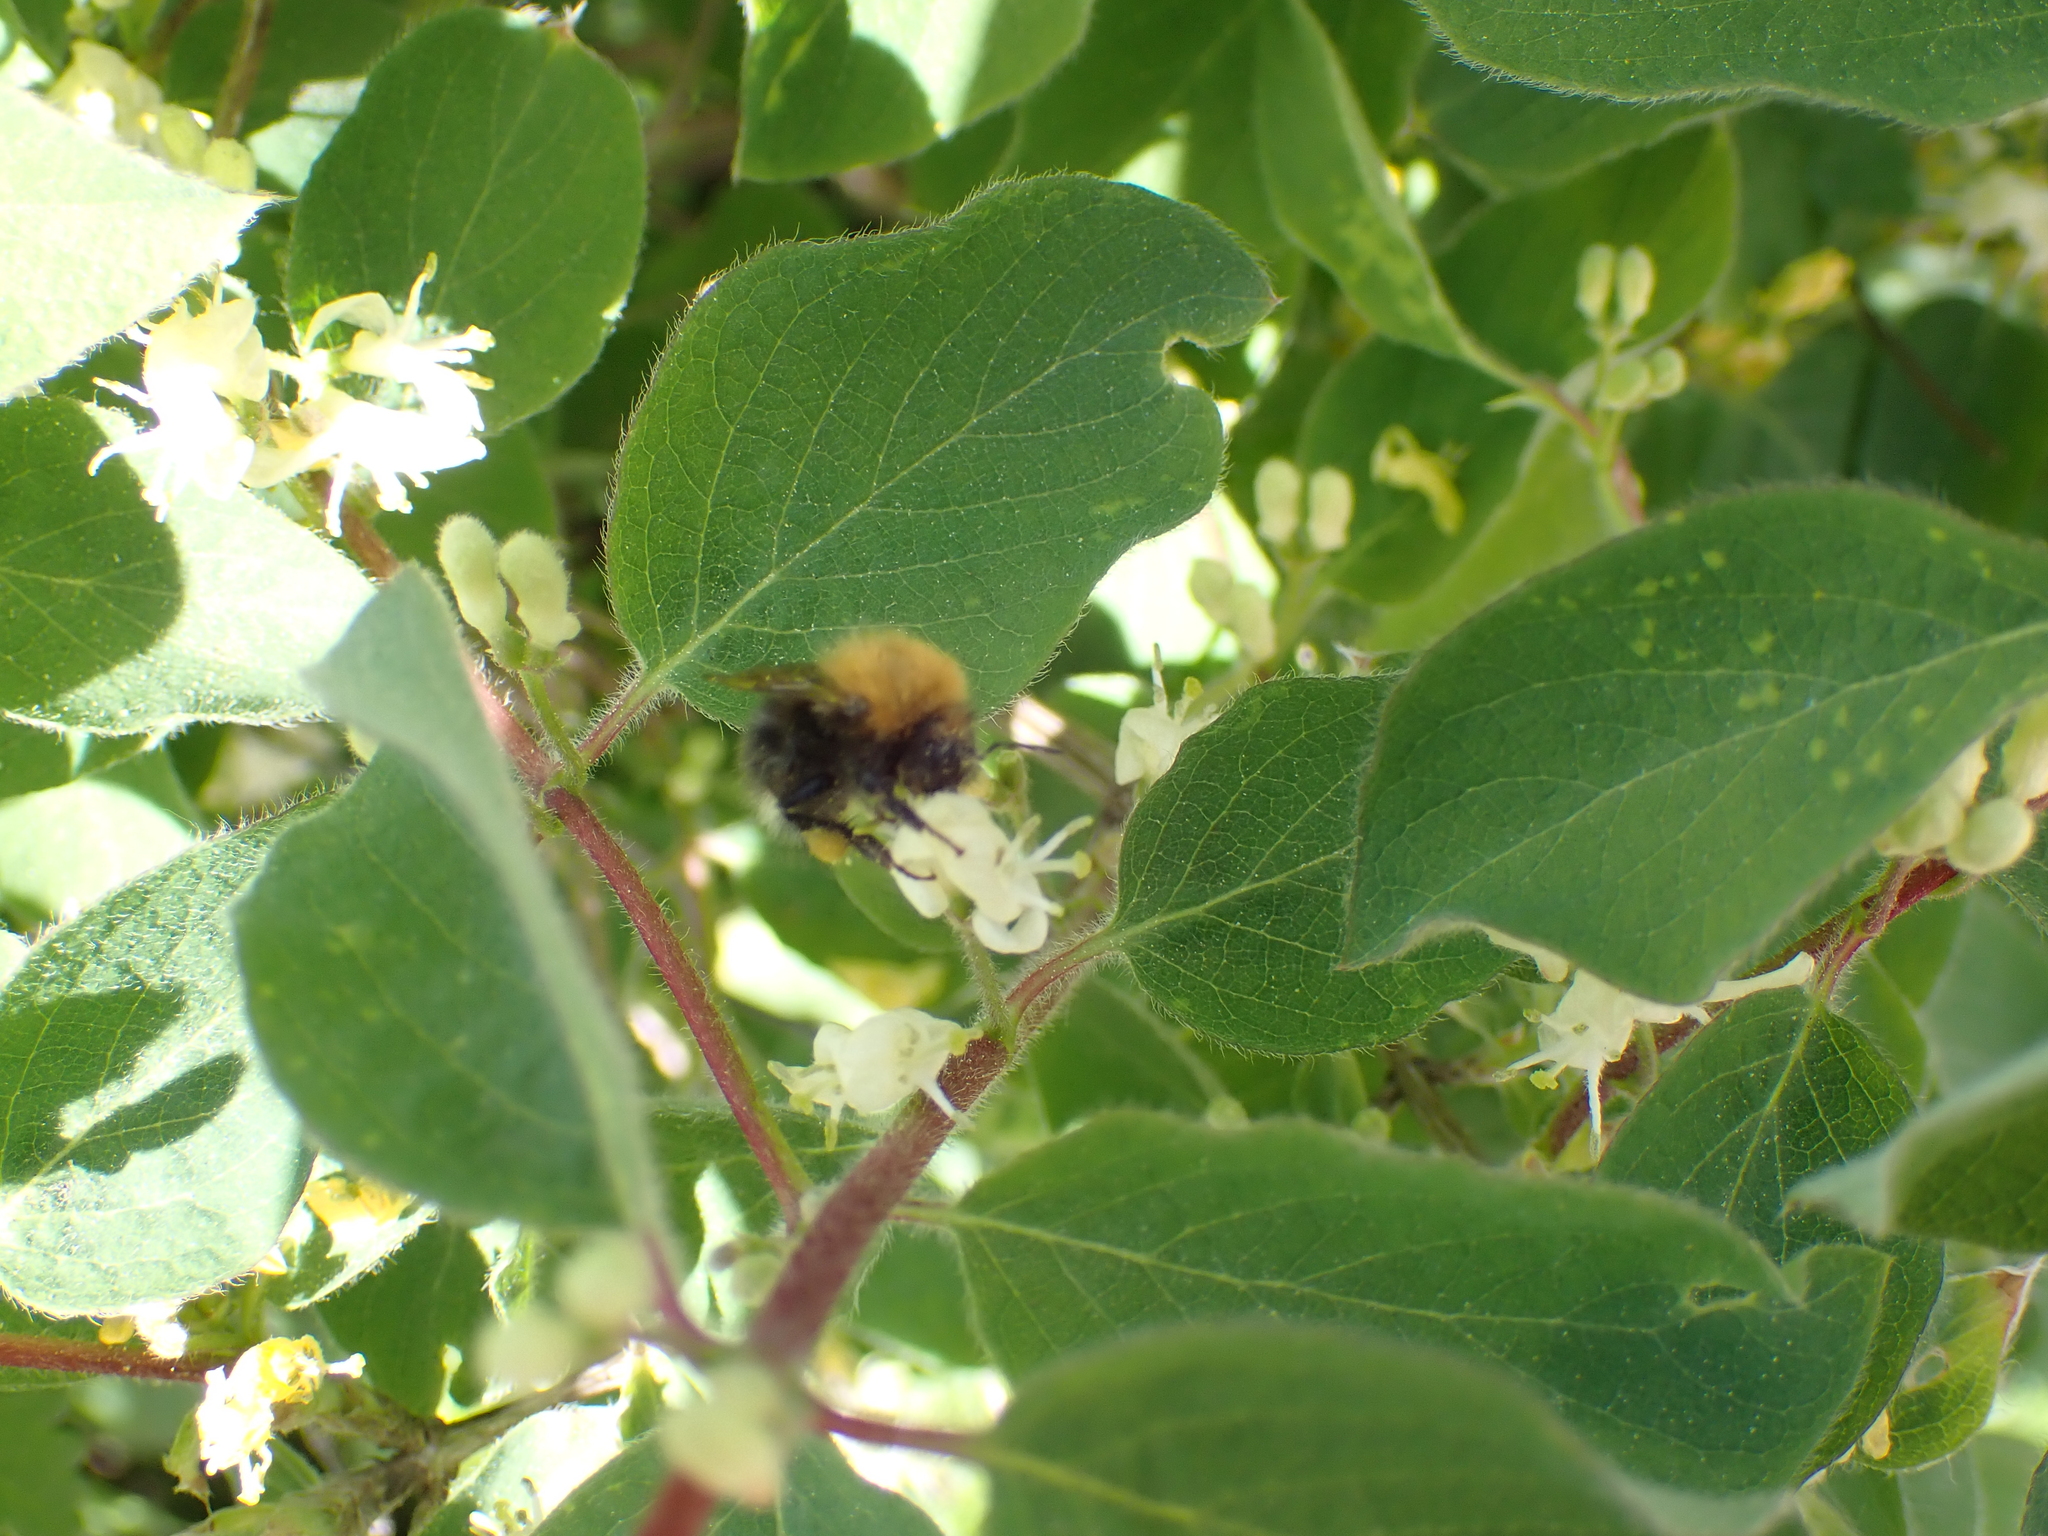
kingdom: Animalia
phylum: Arthropoda
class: Insecta
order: Hymenoptera
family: Apidae
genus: Bombus
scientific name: Bombus hypnorum
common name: New garden bumblebee
